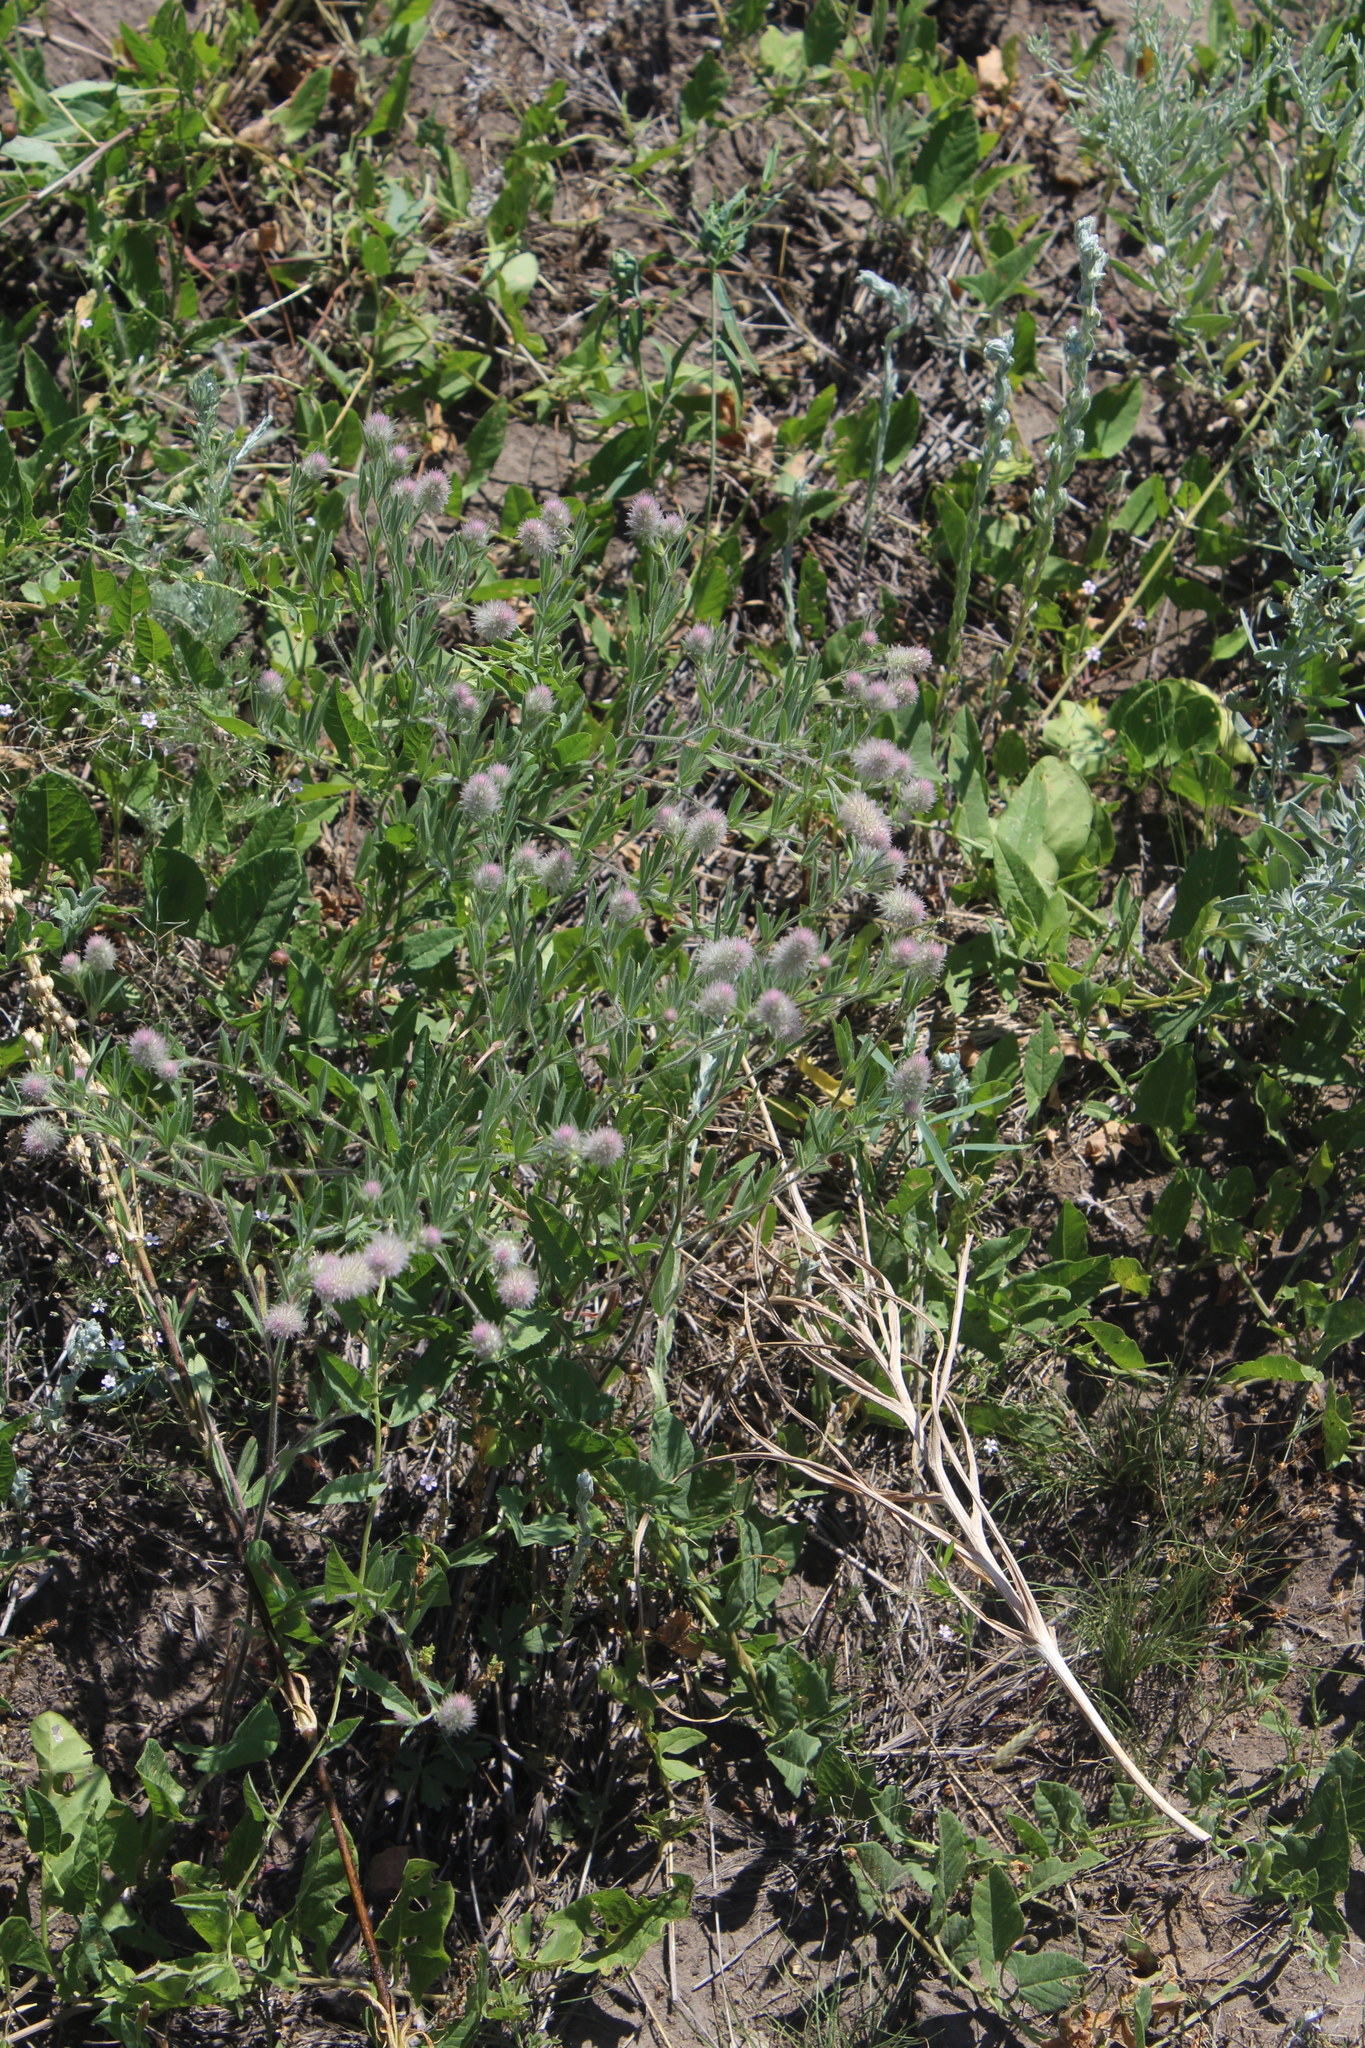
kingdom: Plantae
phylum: Tracheophyta
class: Magnoliopsida
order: Fabales
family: Fabaceae
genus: Trifolium
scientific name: Trifolium arvense
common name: Hare's-foot clover
